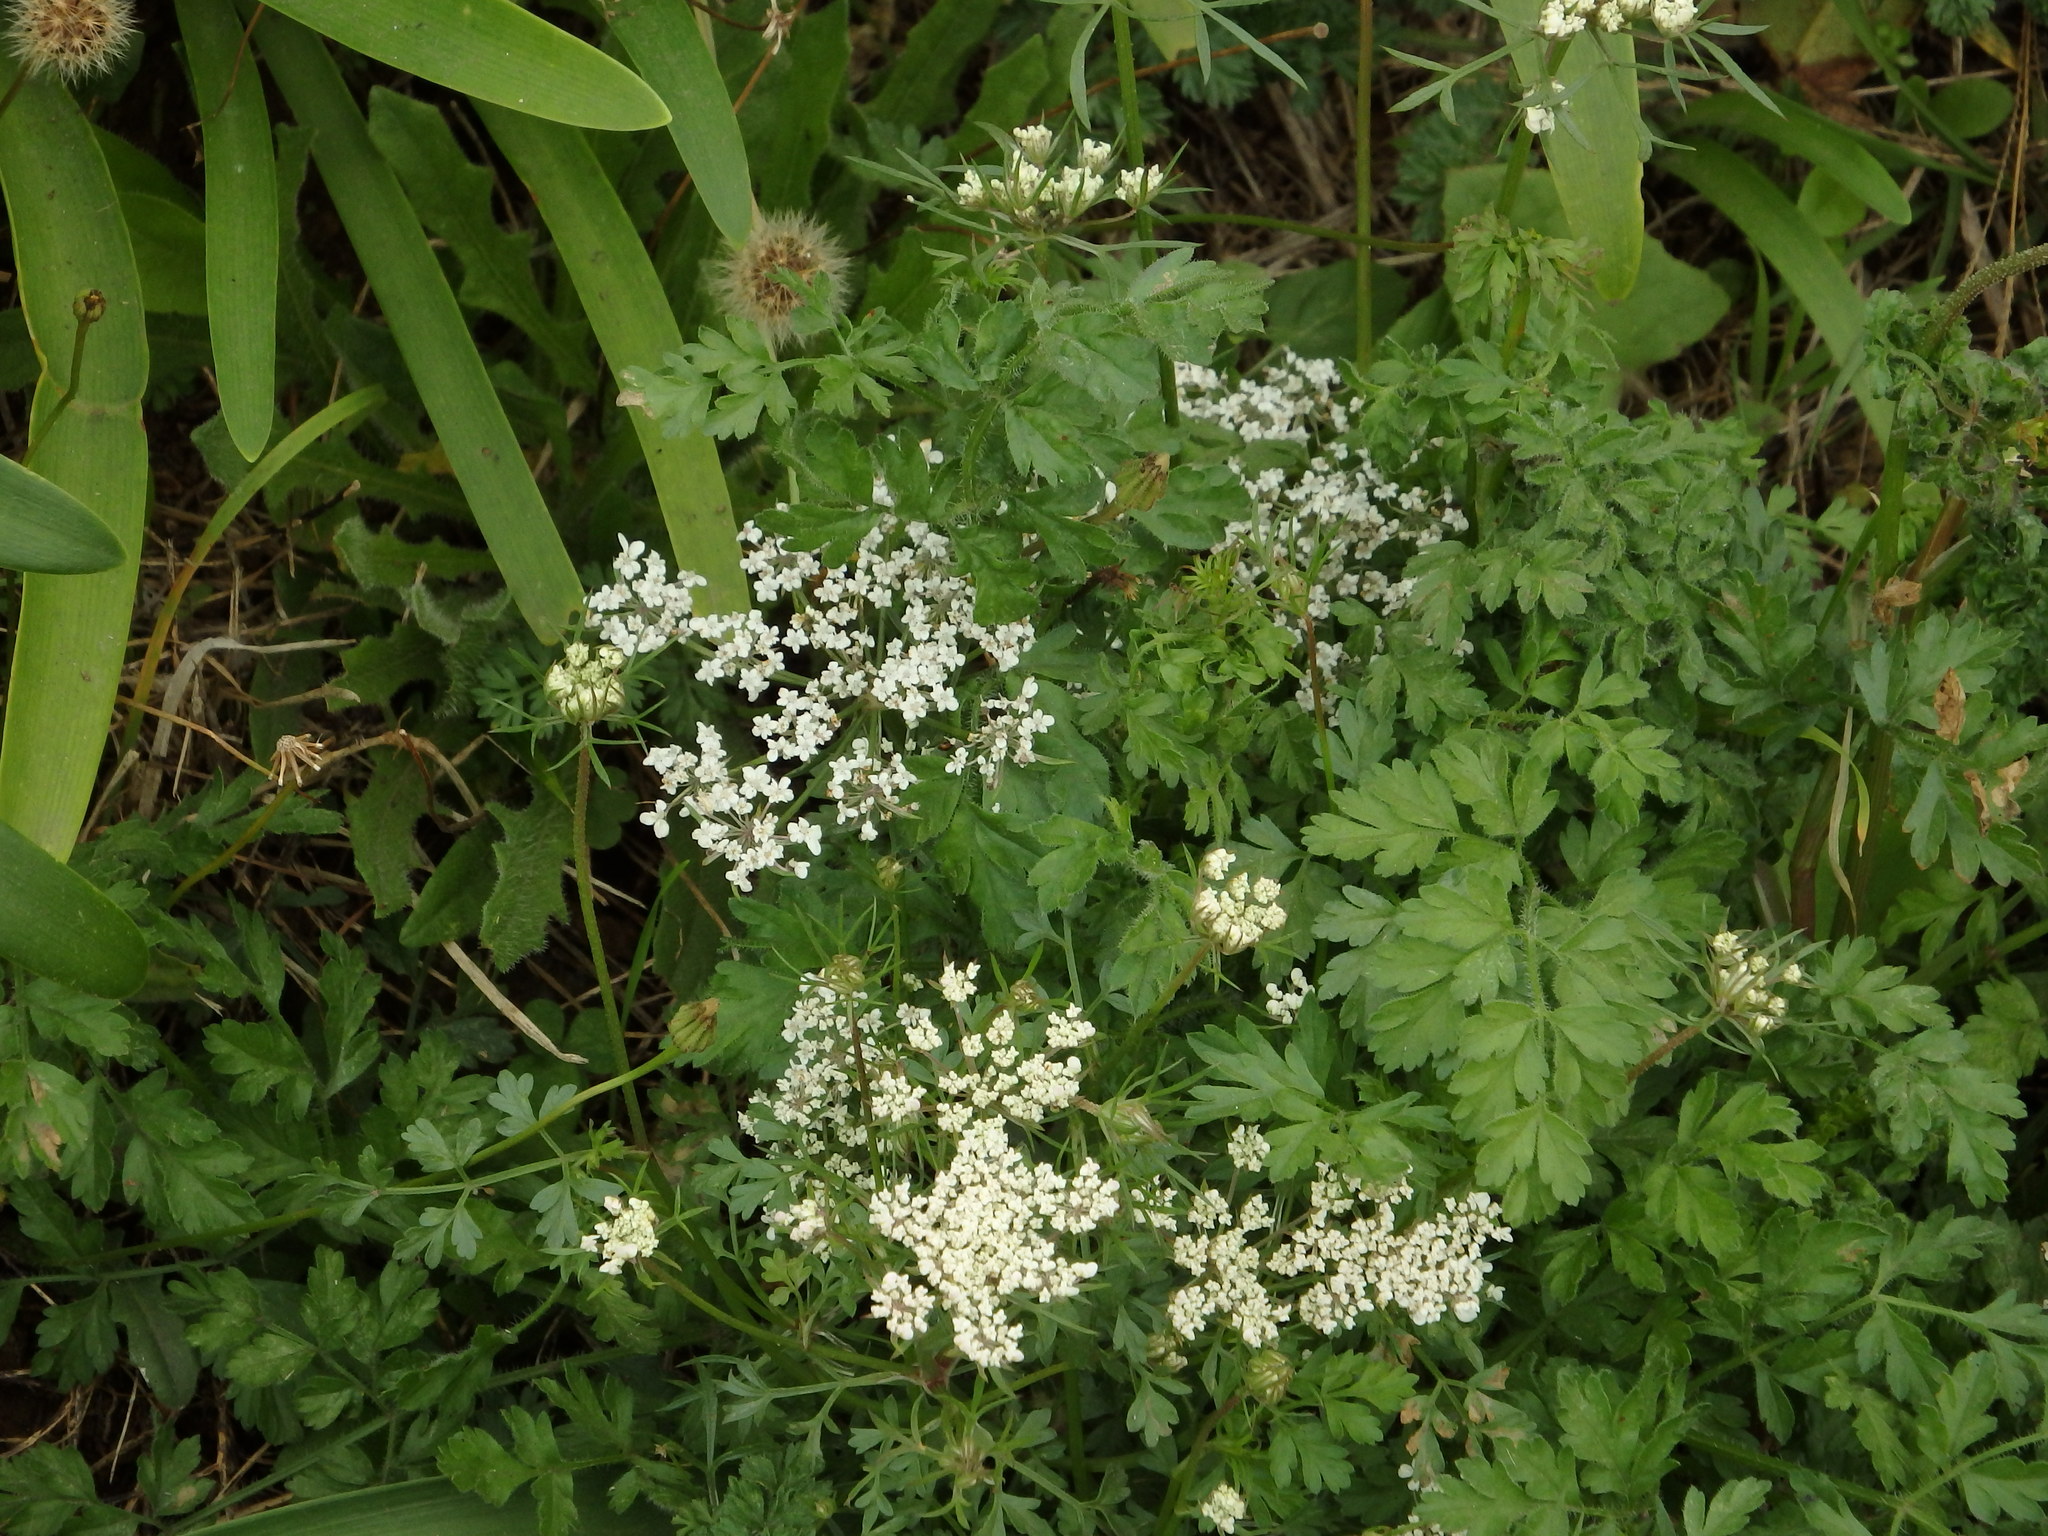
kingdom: Plantae
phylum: Tracheophyta
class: Magnoliopsida
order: Apiales
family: Apiaceae
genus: Daucus
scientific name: Daucus carota
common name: Wild carrot
